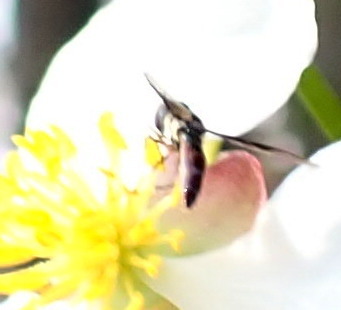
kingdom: Animalia
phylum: Arthropoda
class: Insecta
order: Diptera
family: Syrphidae
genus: Ocyptamus
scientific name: Ocyptamus fuscipennis
